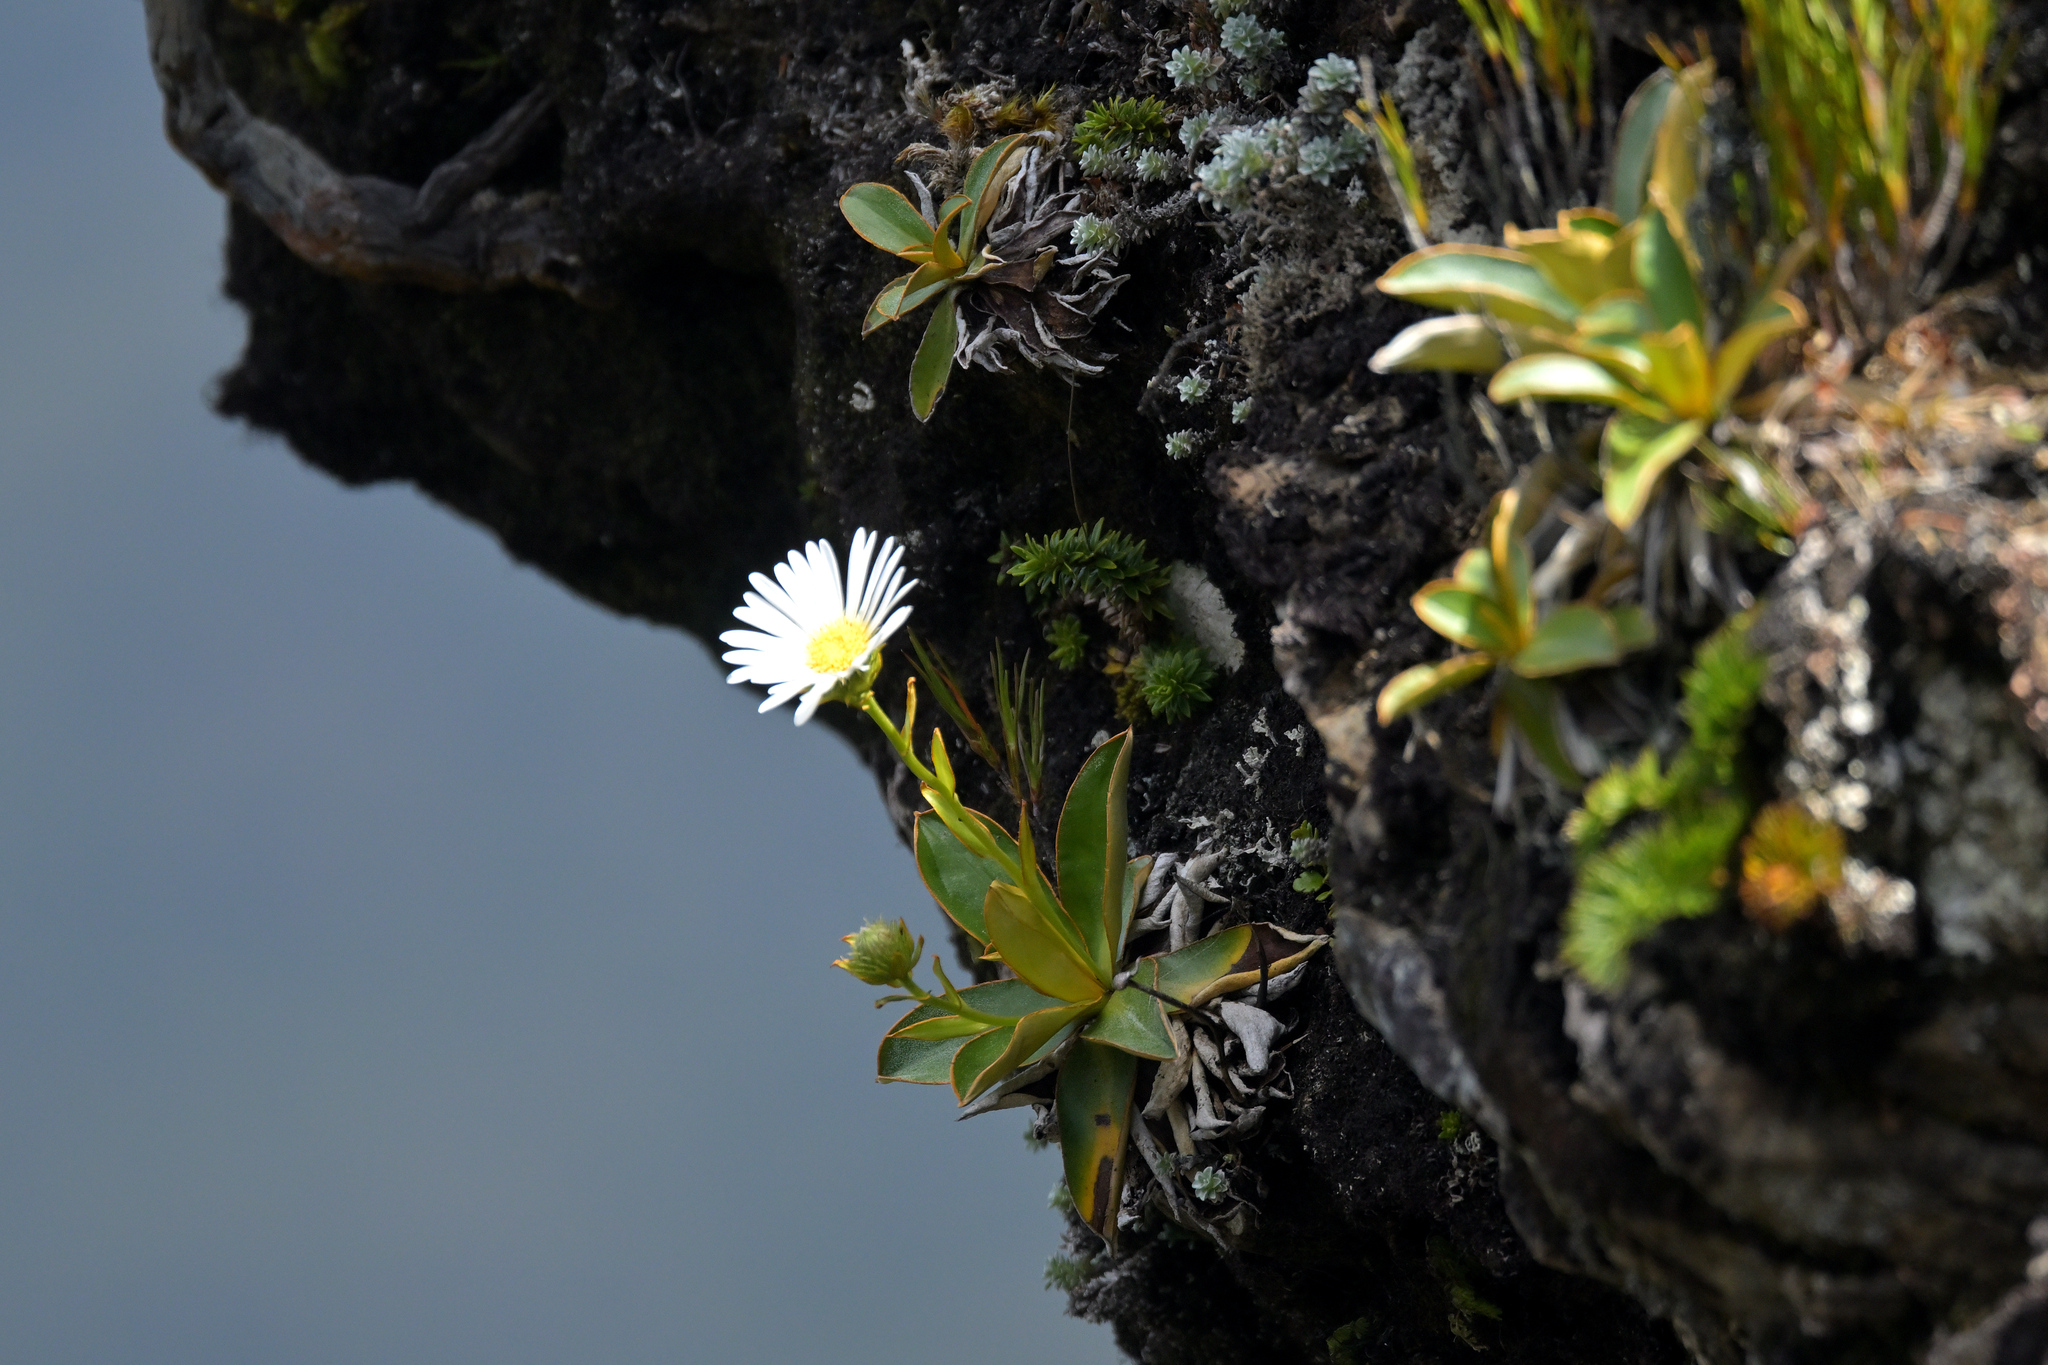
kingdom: Plantae
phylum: Tracheophyta
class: Magnoliopsida
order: Asterales
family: Asteraceae
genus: Celmisia
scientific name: Celmisia dallii
